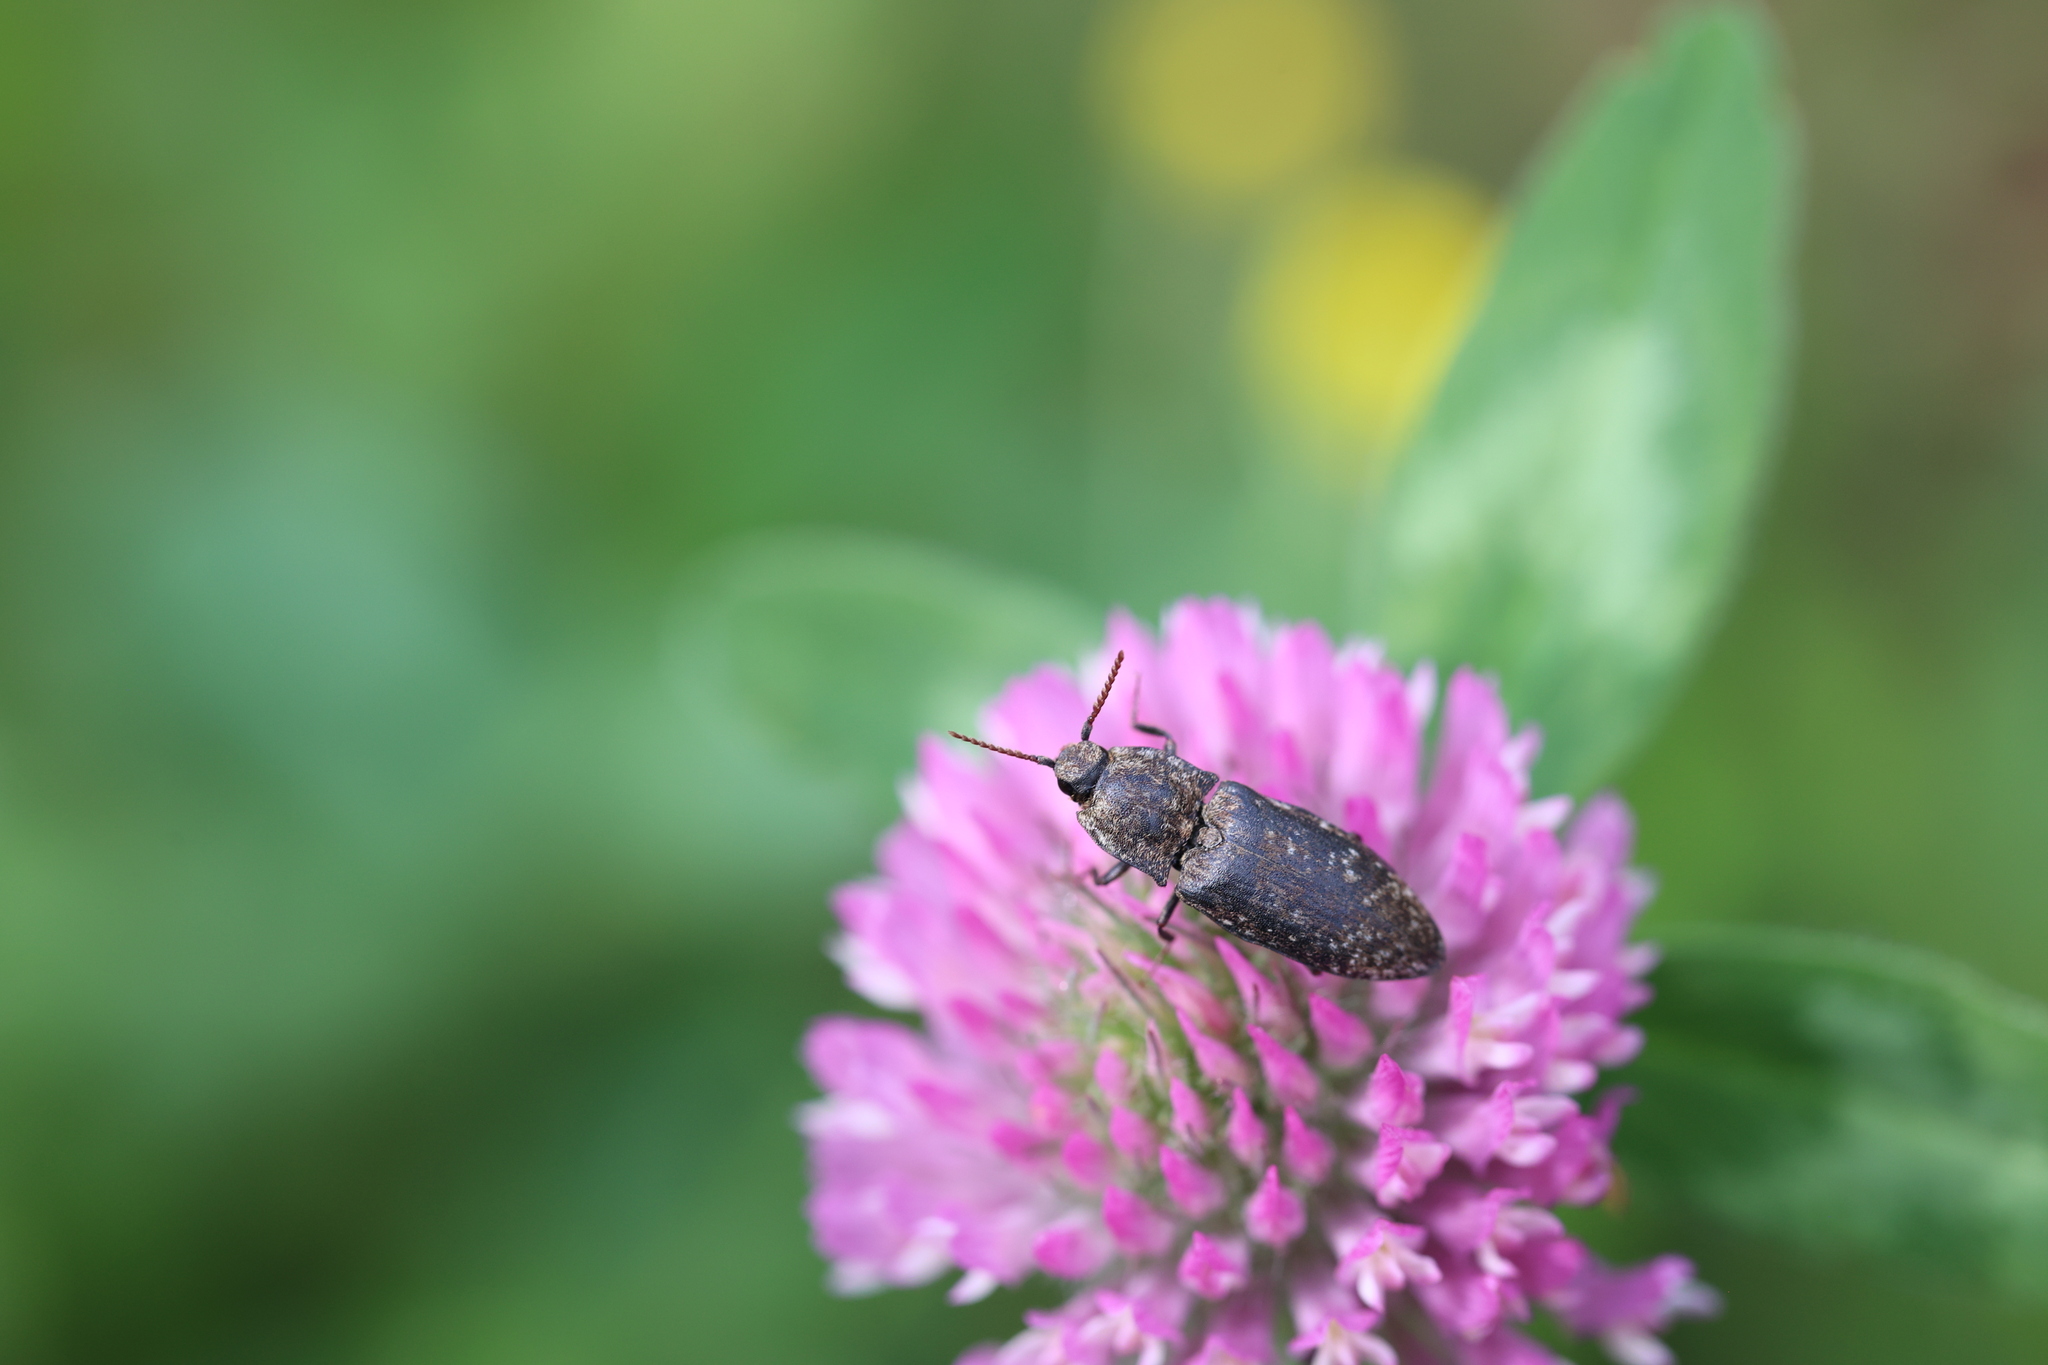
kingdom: Animalia
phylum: Arthropoda
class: Insecta
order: Coleoptera
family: Elateridae
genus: Agrypnus
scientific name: Agrypnus murinus
